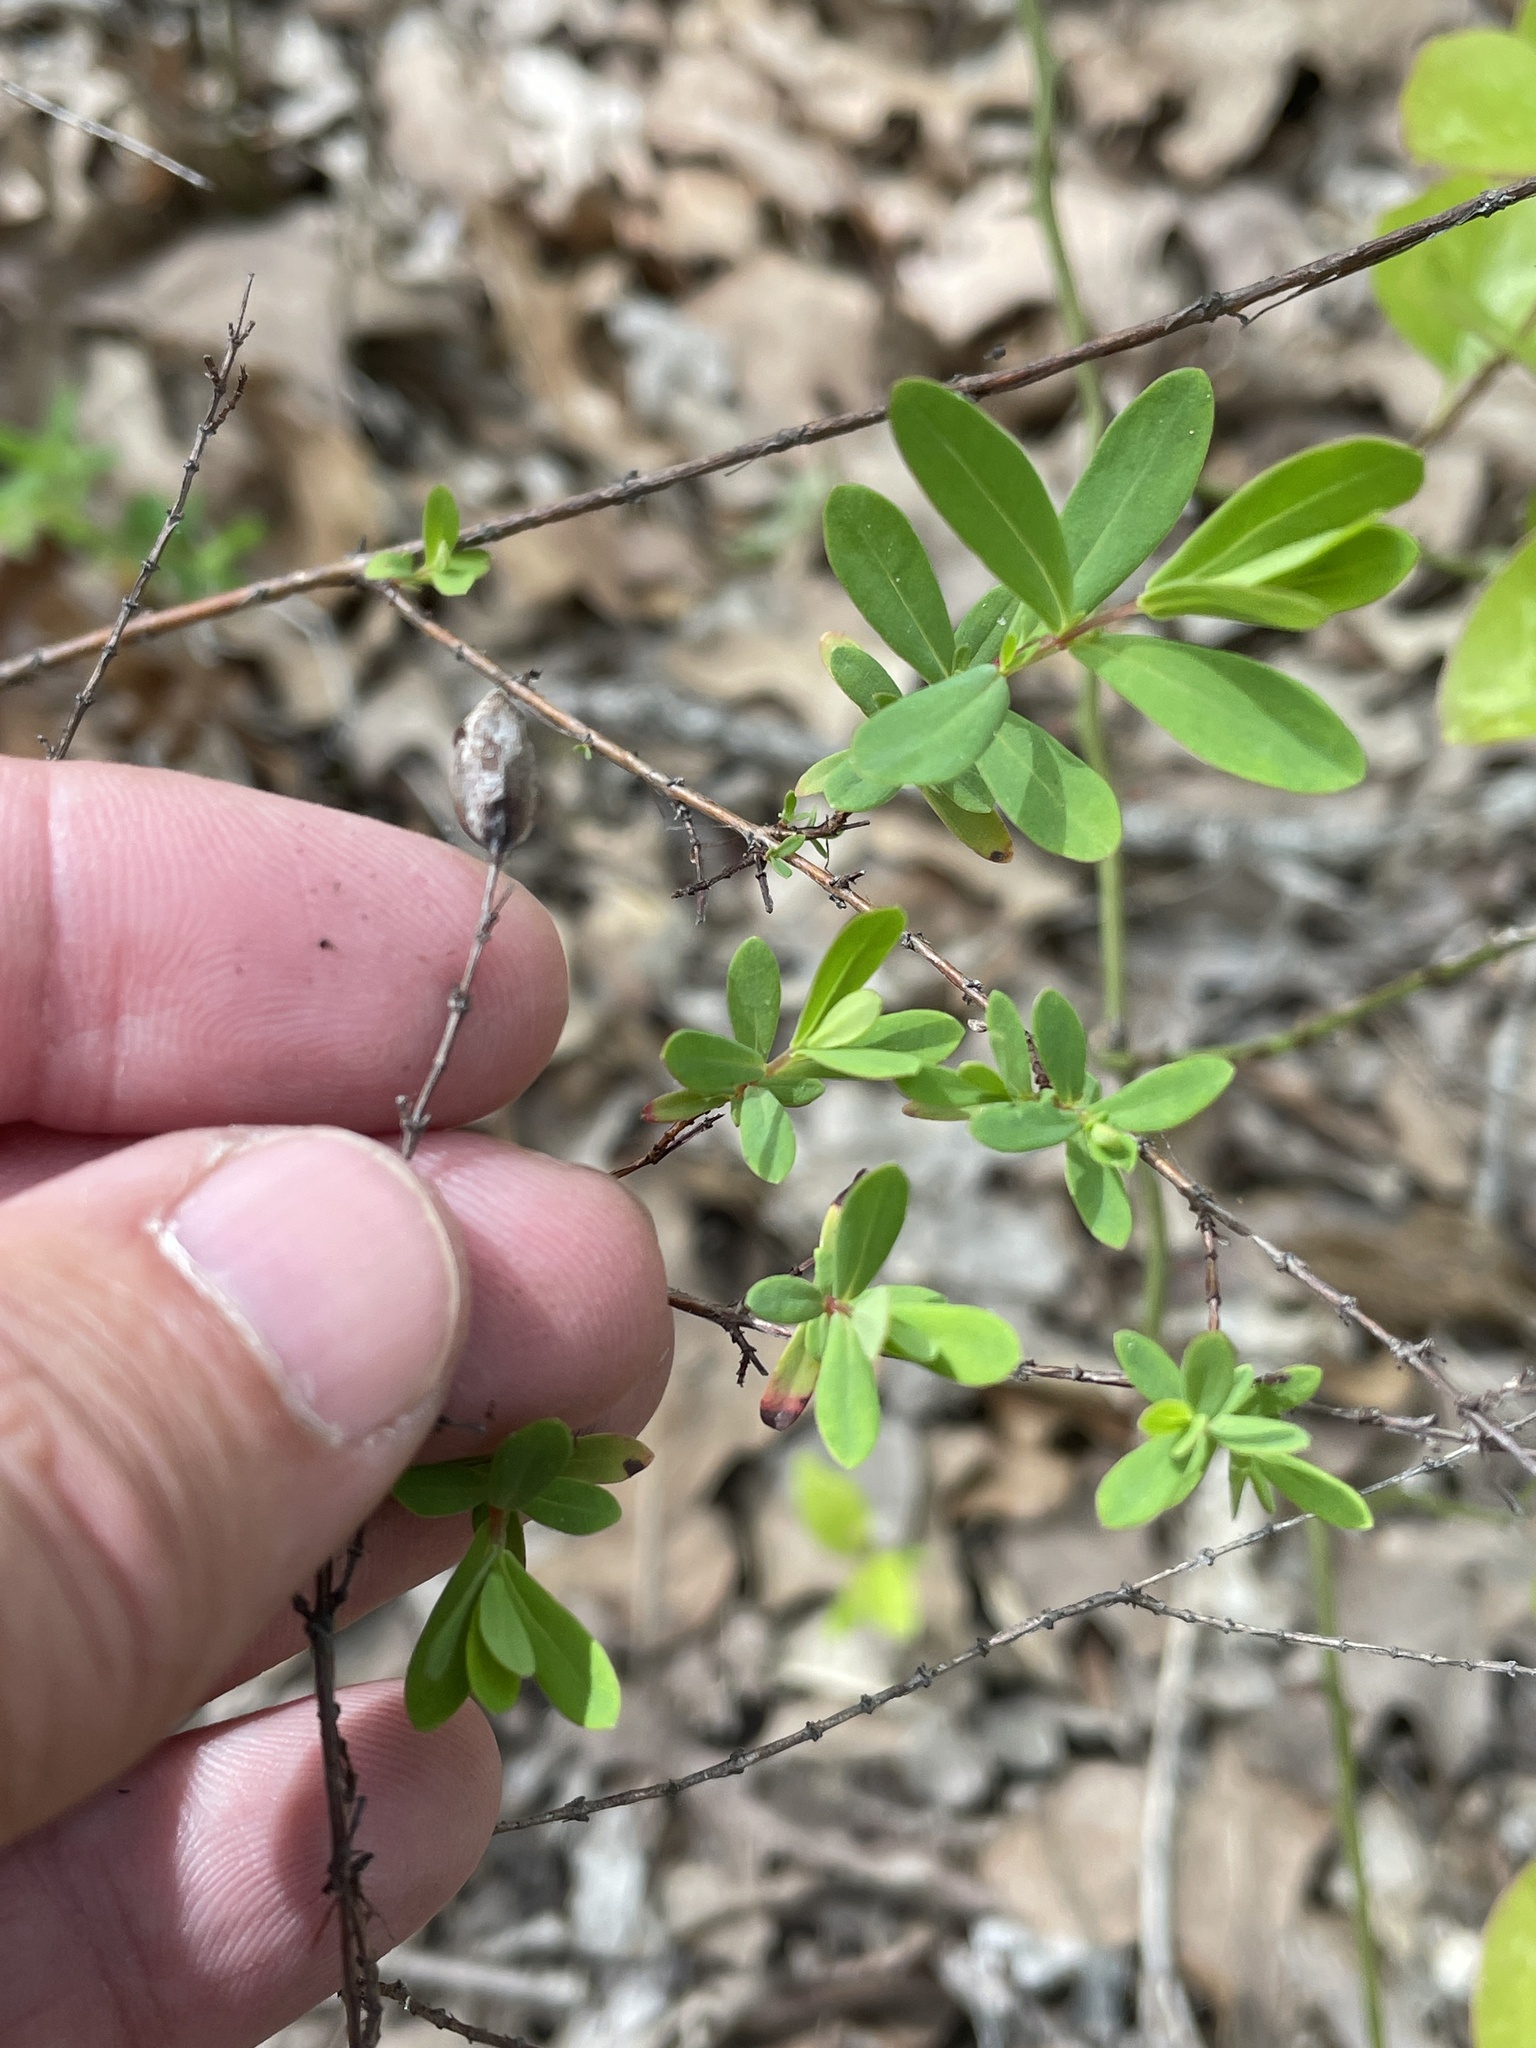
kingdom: Plantae
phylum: Tracheophyta
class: Magnoliopsida
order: Malpighiales
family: Hypericaceae
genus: Hypericum
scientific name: Hypericum hypericoides
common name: St. andrew's cross
